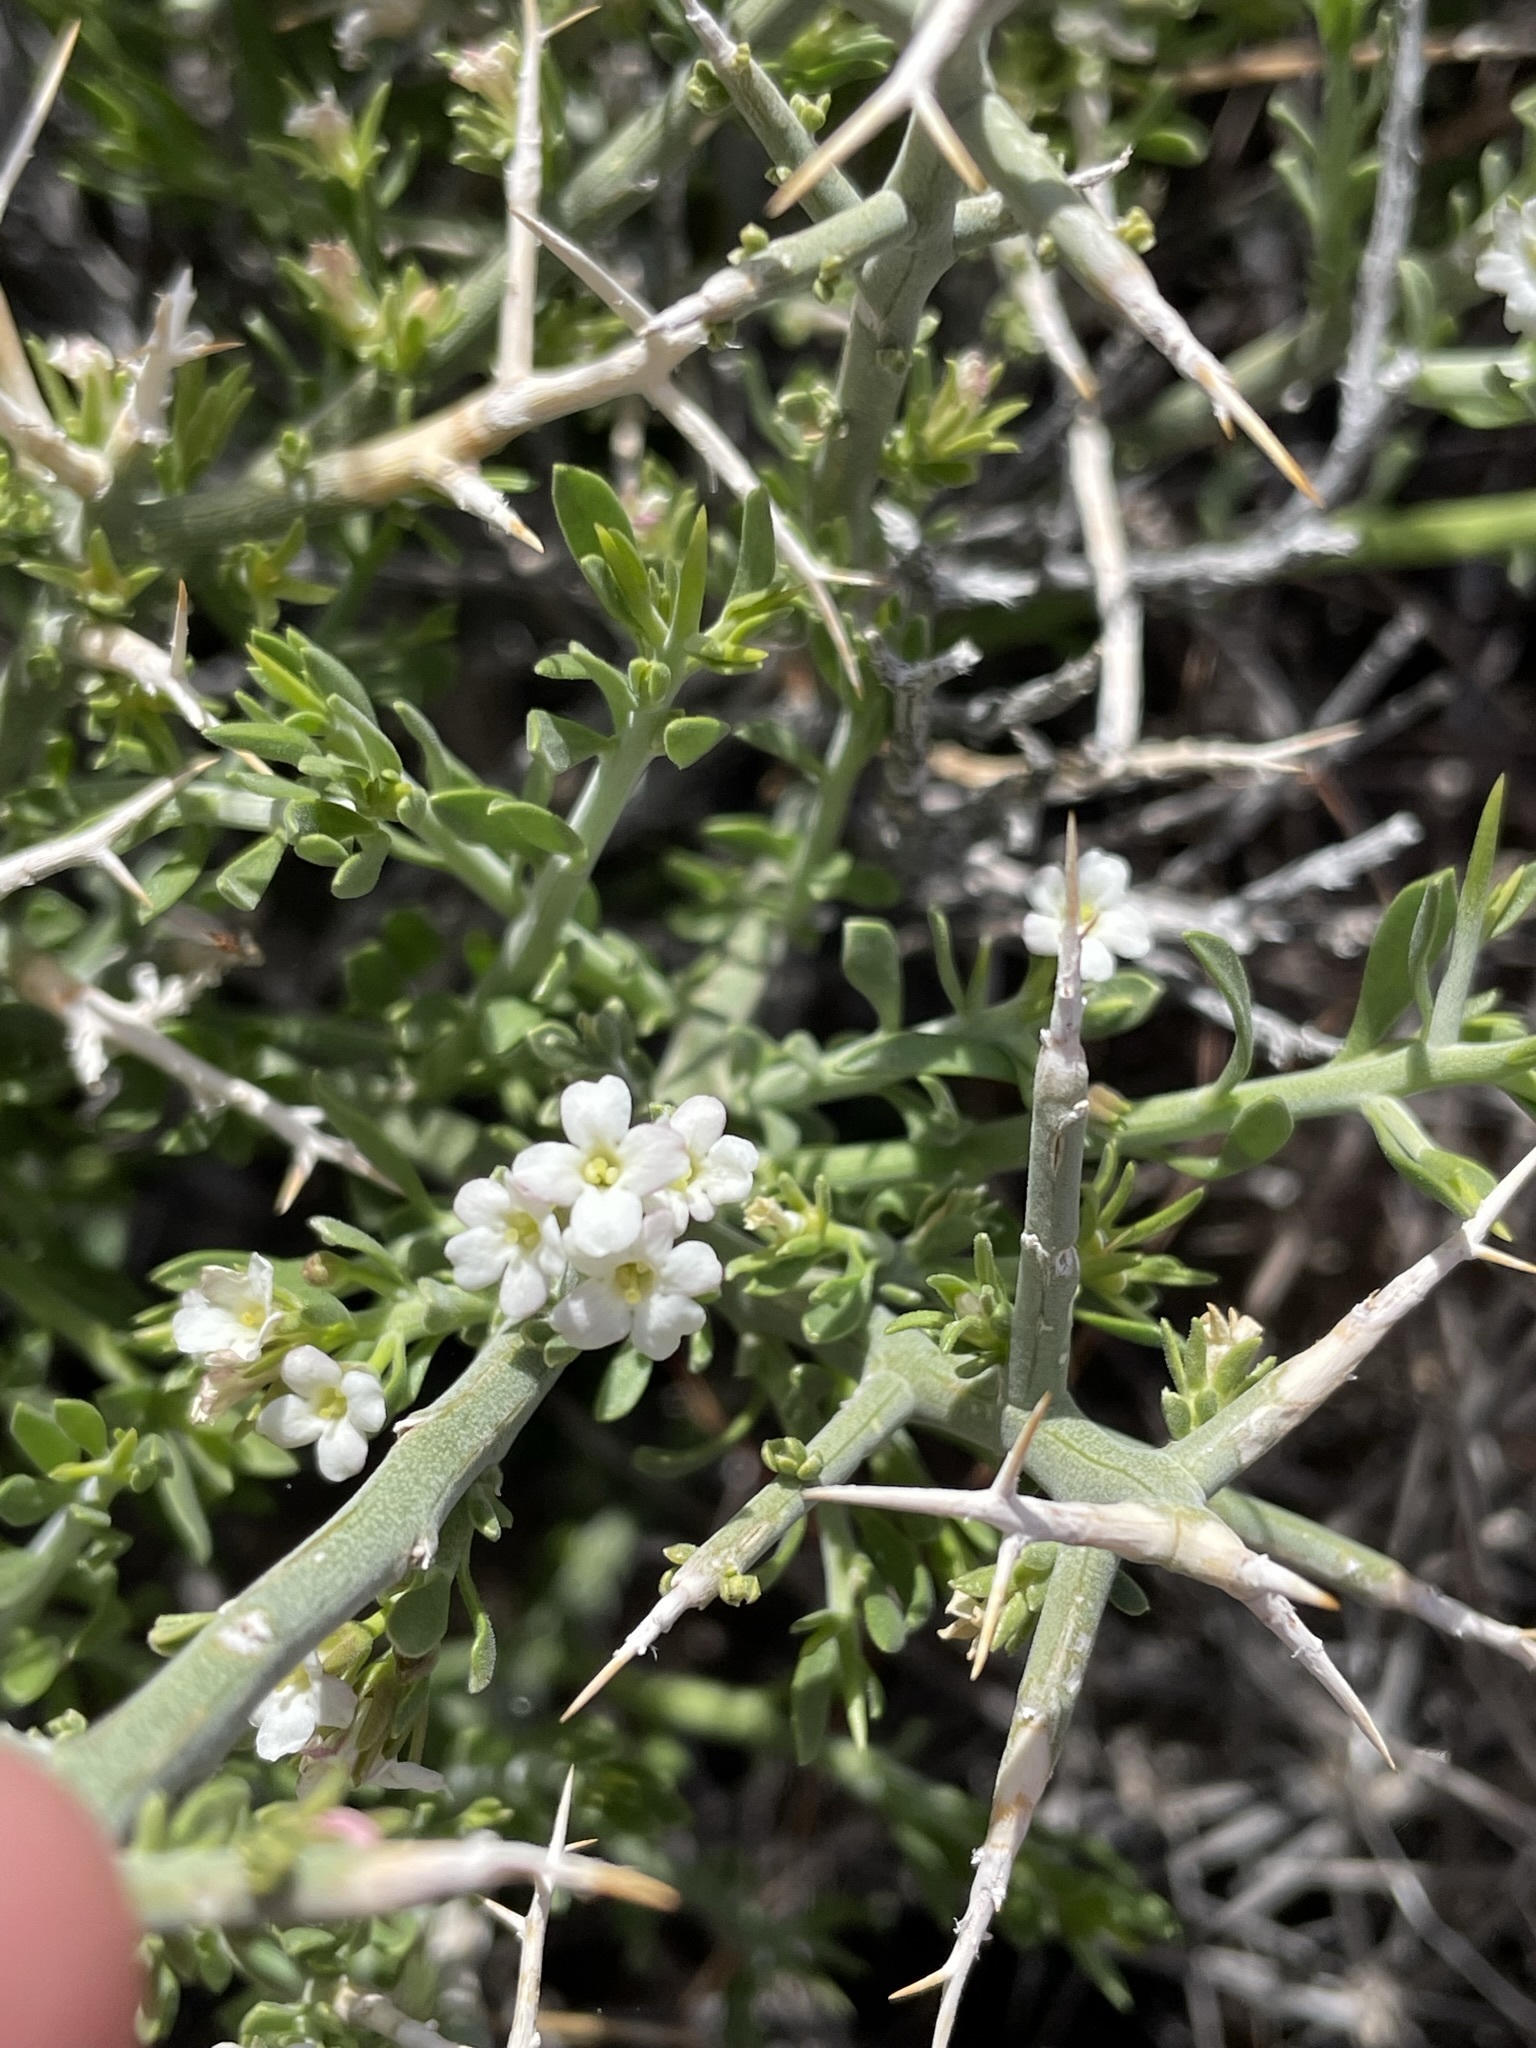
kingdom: Plantae
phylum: Tracheophyta
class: Magnoliopsida
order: Lamiales
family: Oleaceae
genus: Menodora
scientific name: Menodora spinescens
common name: Spiny menodora
